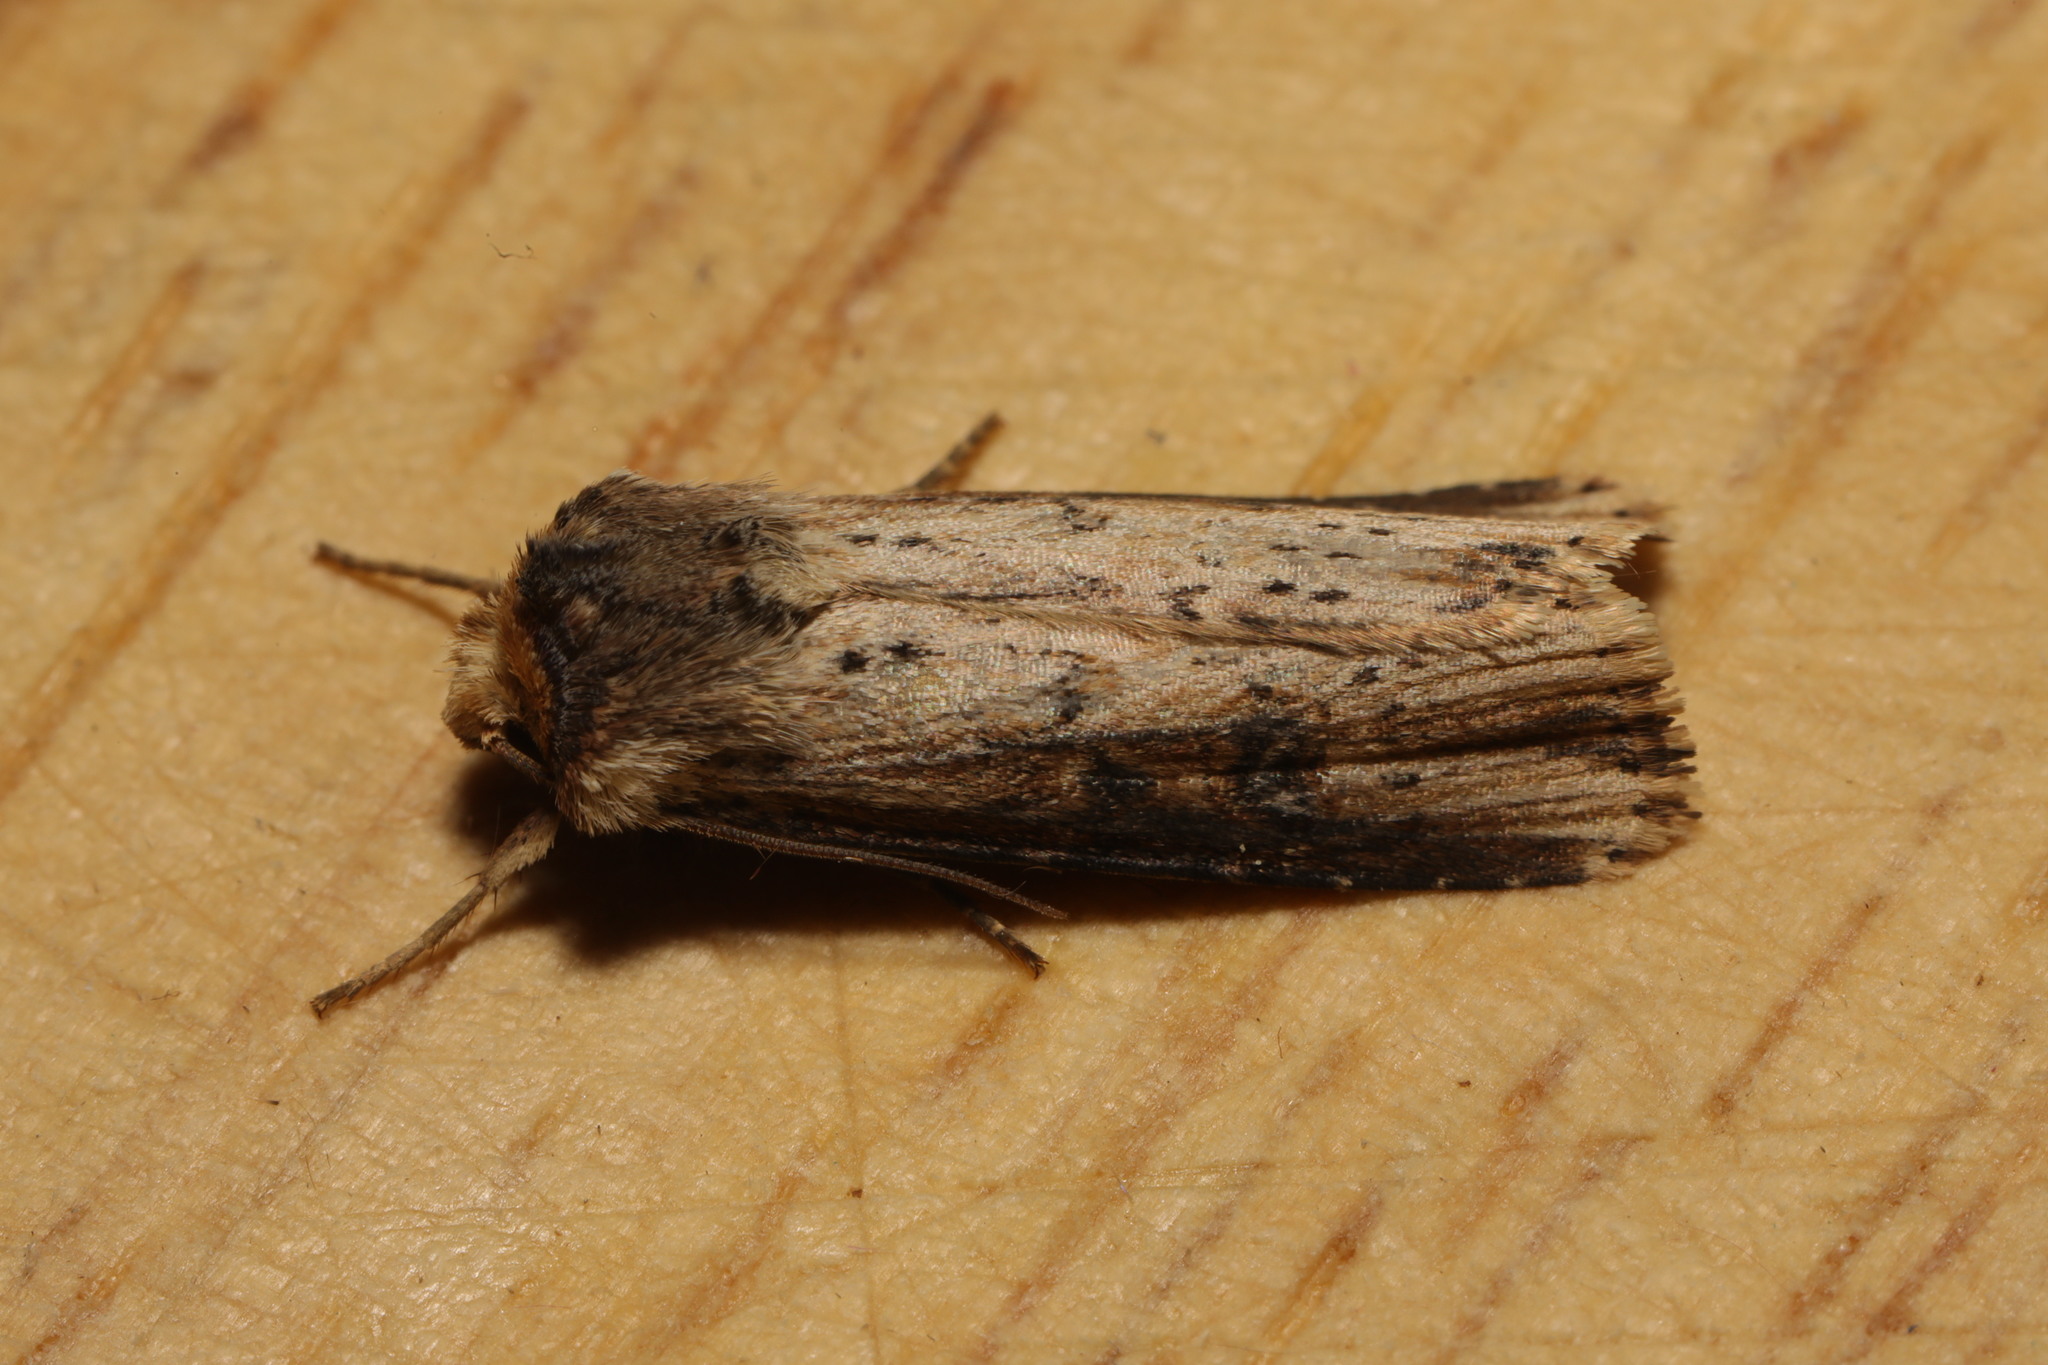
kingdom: Animalia
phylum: Arthropoda
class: Insecta
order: Lepidoptera
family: Noctuidae
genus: Axylia
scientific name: Axylia putris
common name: Flame
